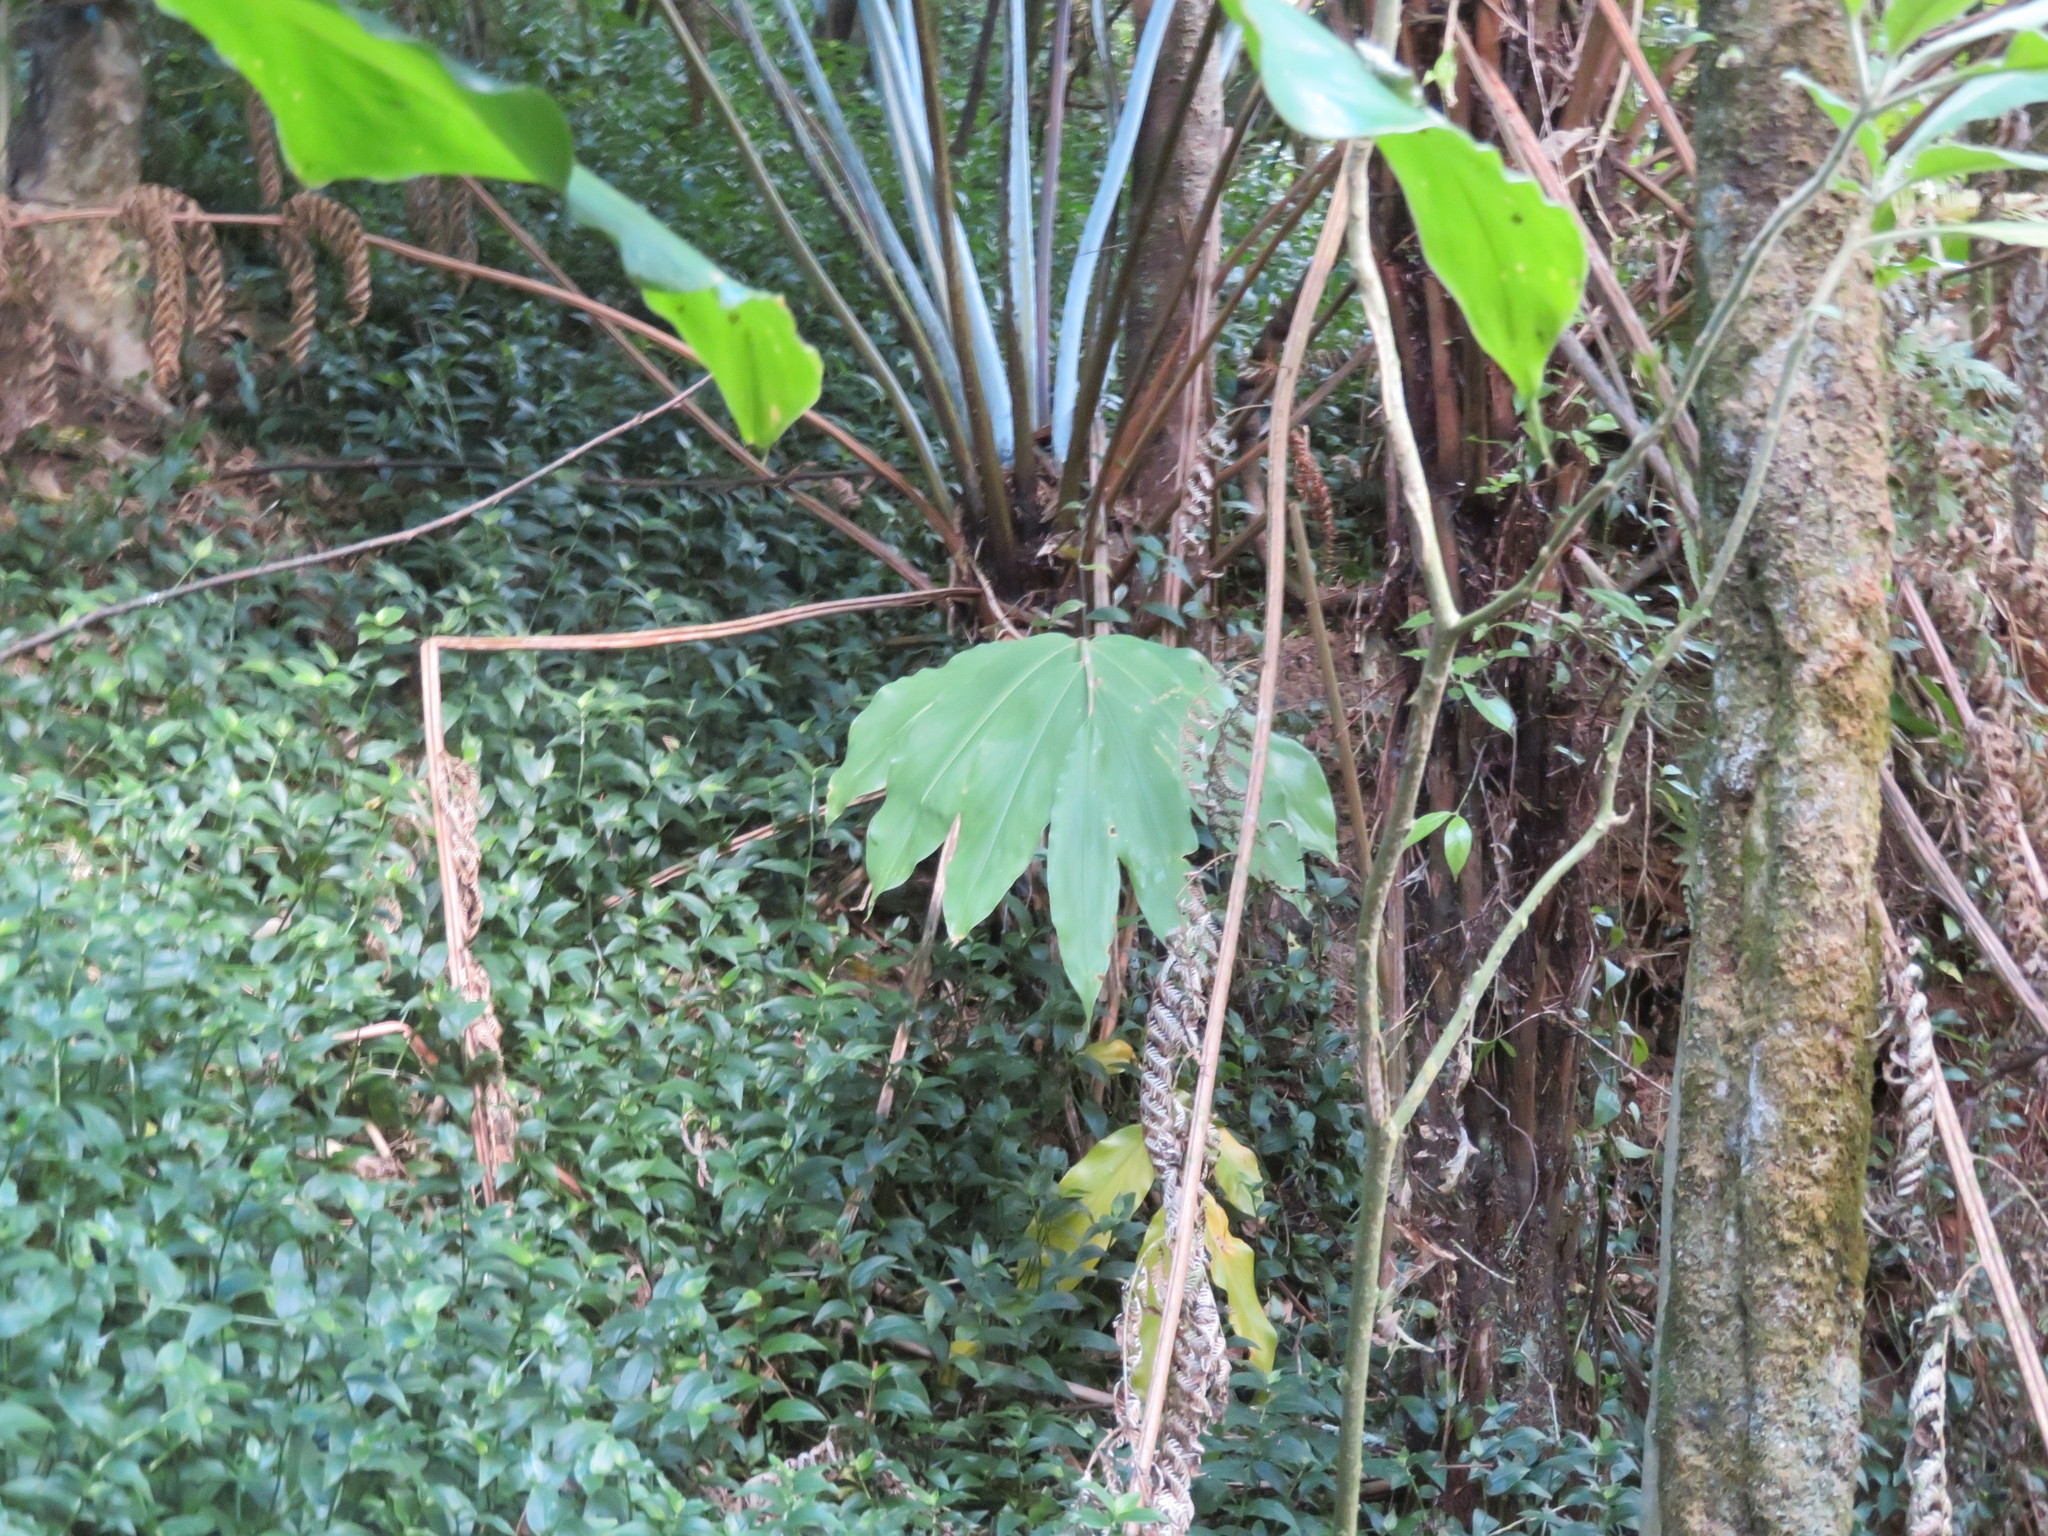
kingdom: Plantae
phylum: Tracheophyta
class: Liliopsida
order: Zingiberales
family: Zingiberaceae
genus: Hedychium
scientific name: Hedychium gardnerianum
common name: Himalayan ginger
